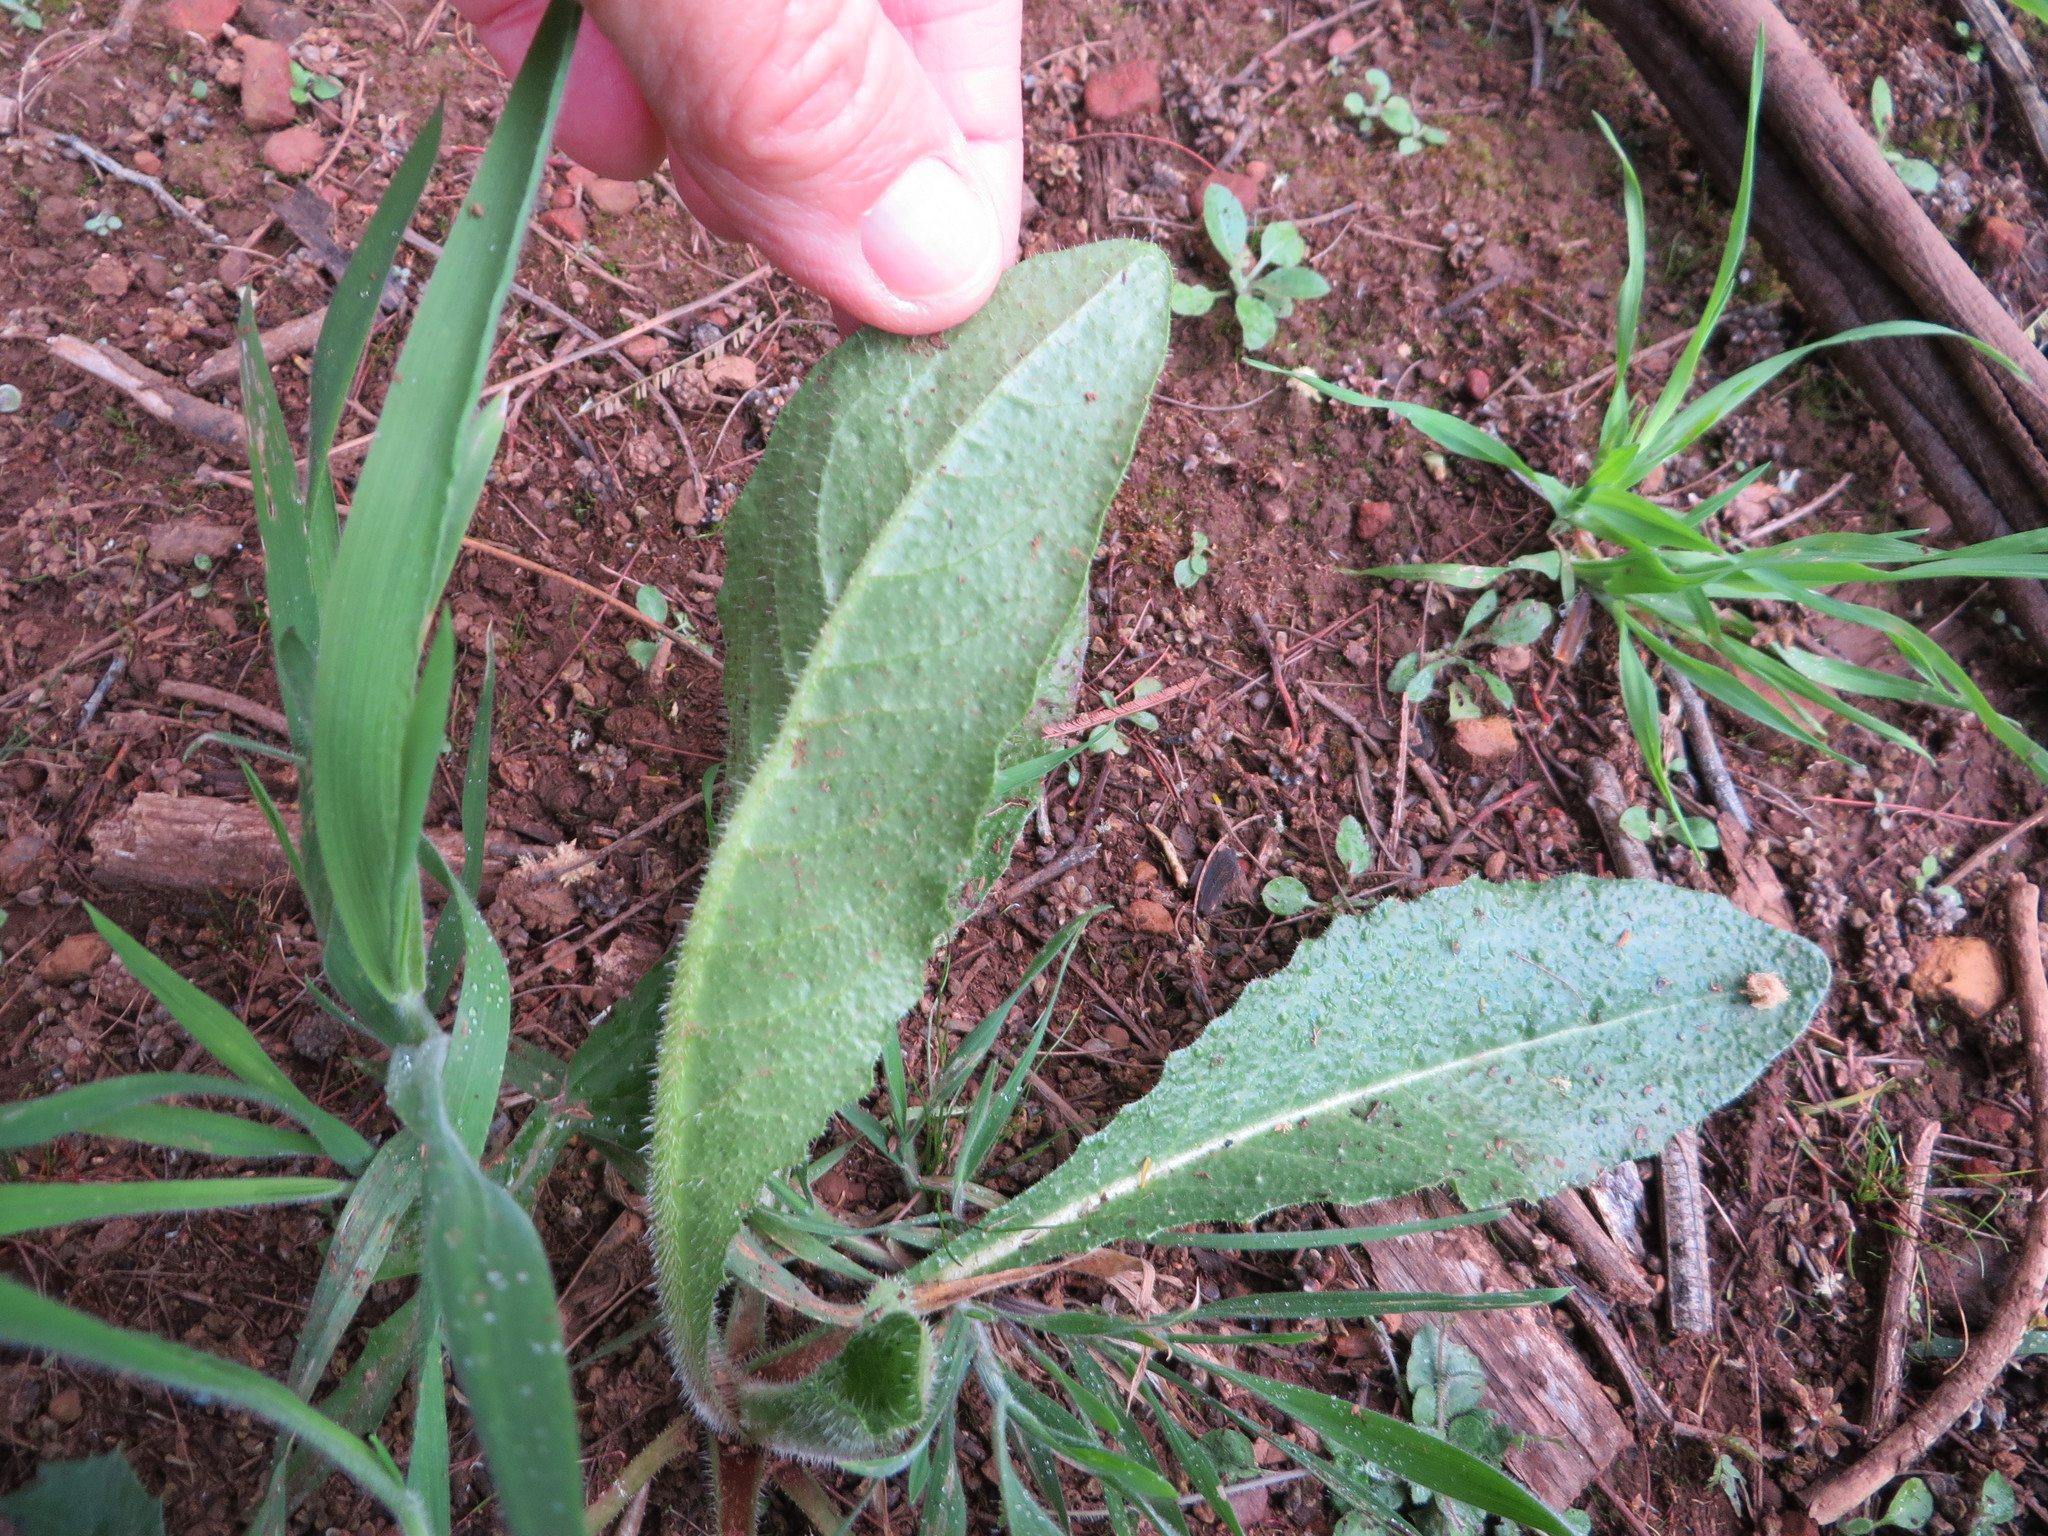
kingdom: Plantae
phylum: Tracheophyta
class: Magnoliopsida
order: Asterales
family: Asteraceae
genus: Helminthotheca
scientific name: Helminthotheca echioides
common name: Ox-tongue
